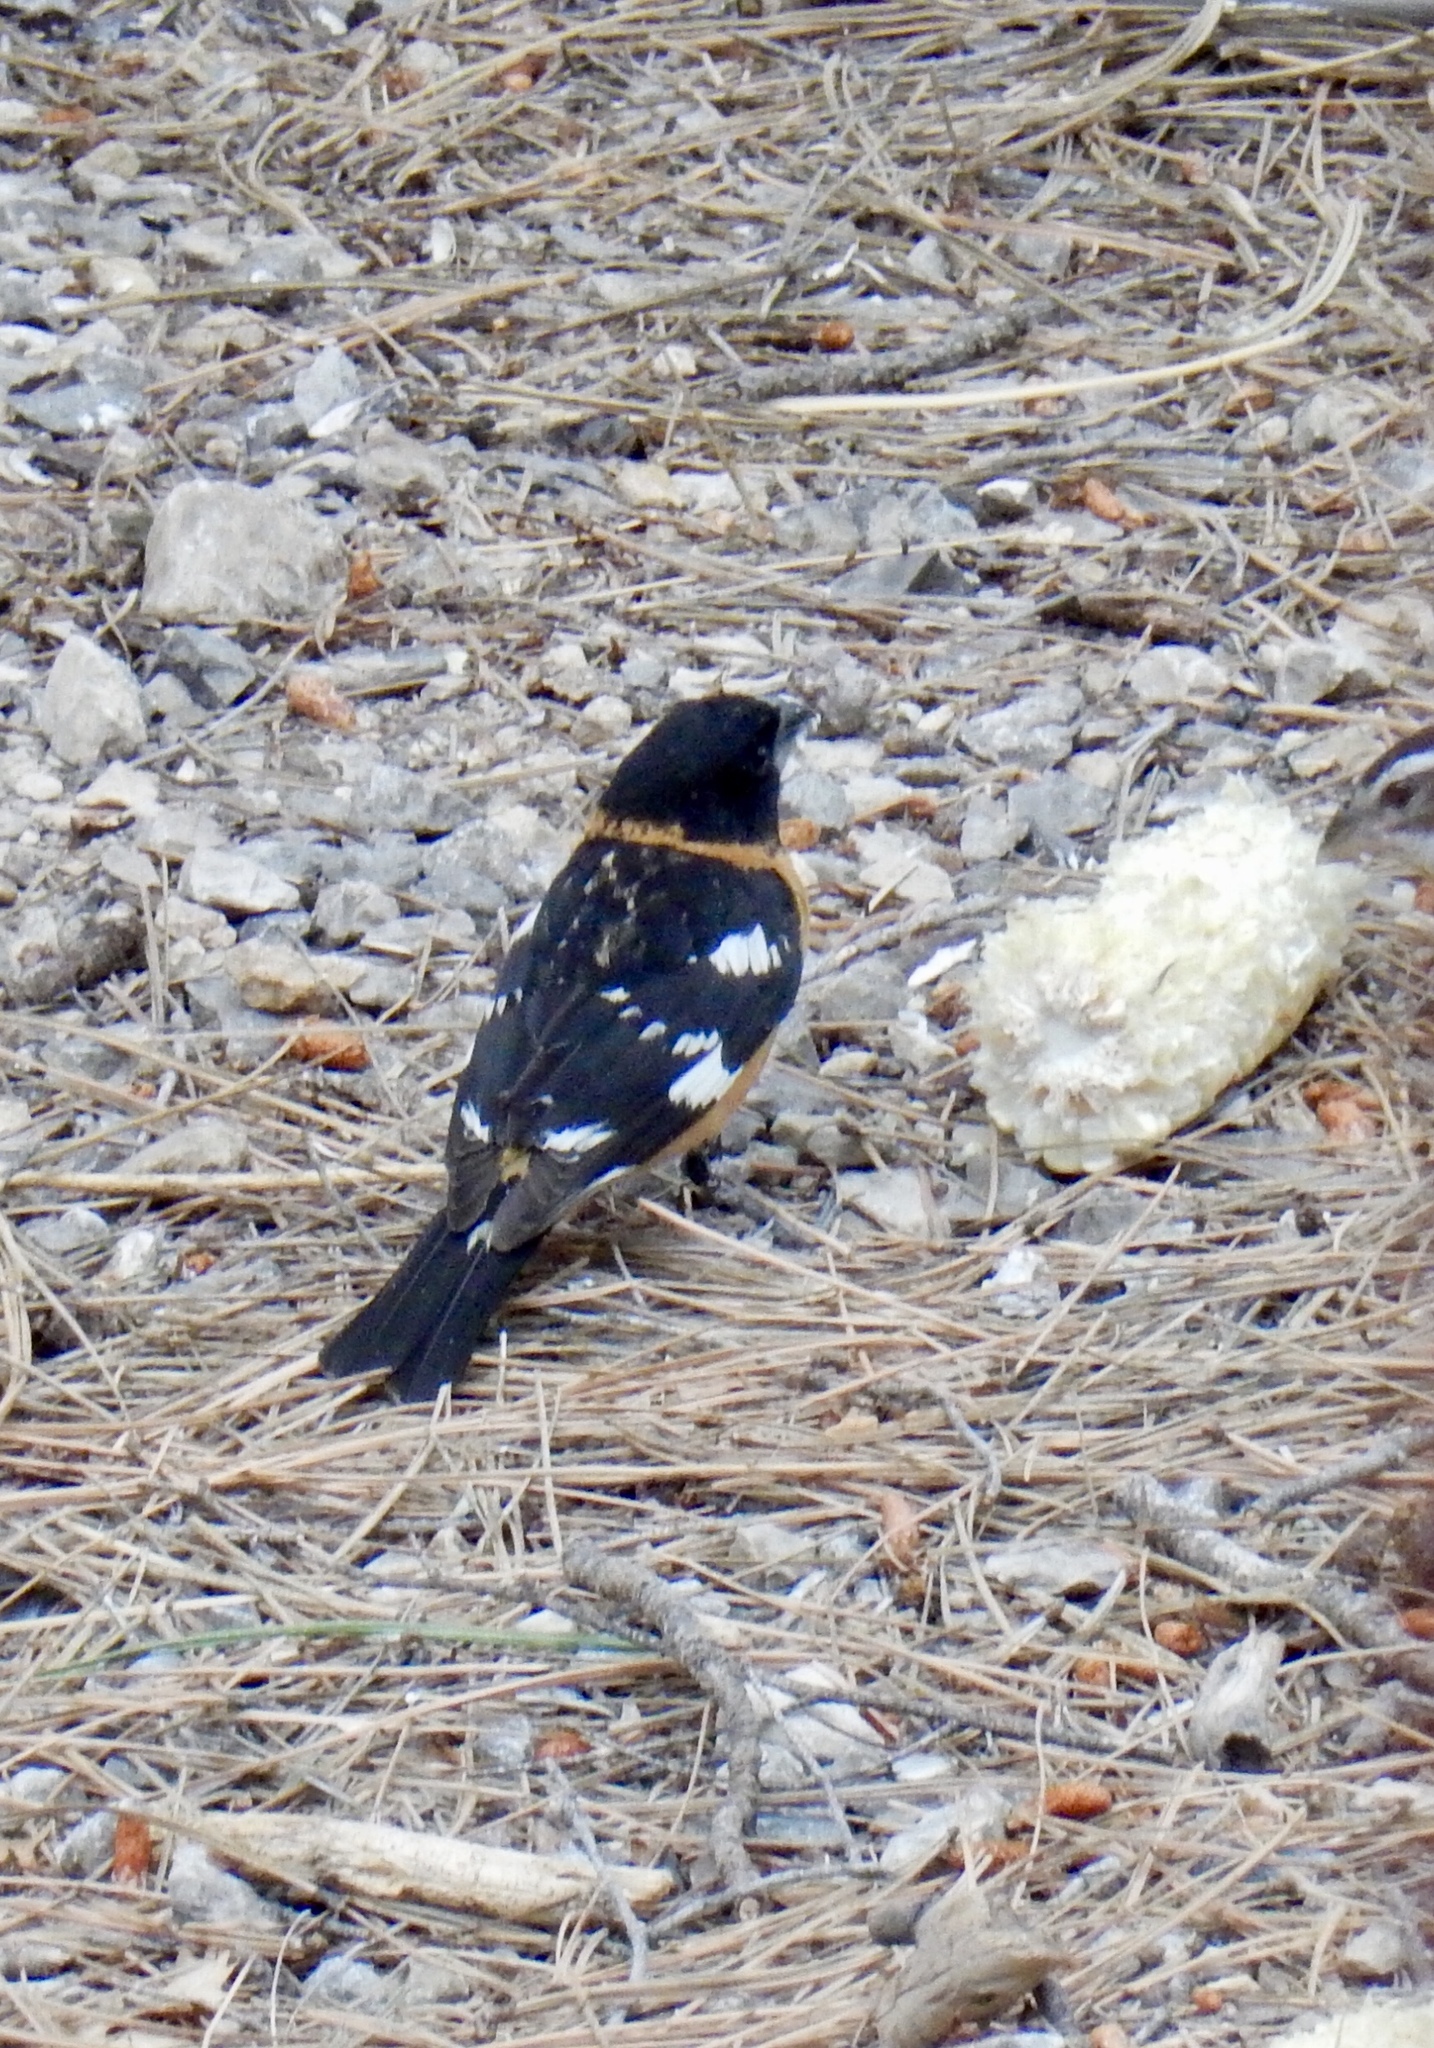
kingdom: Animalia
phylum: Chordata
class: Aves
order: Passeriformes
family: Cardinalidae
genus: Pheucticus
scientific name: Pheucticus melanocephalus
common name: Black-headed grosbeak
